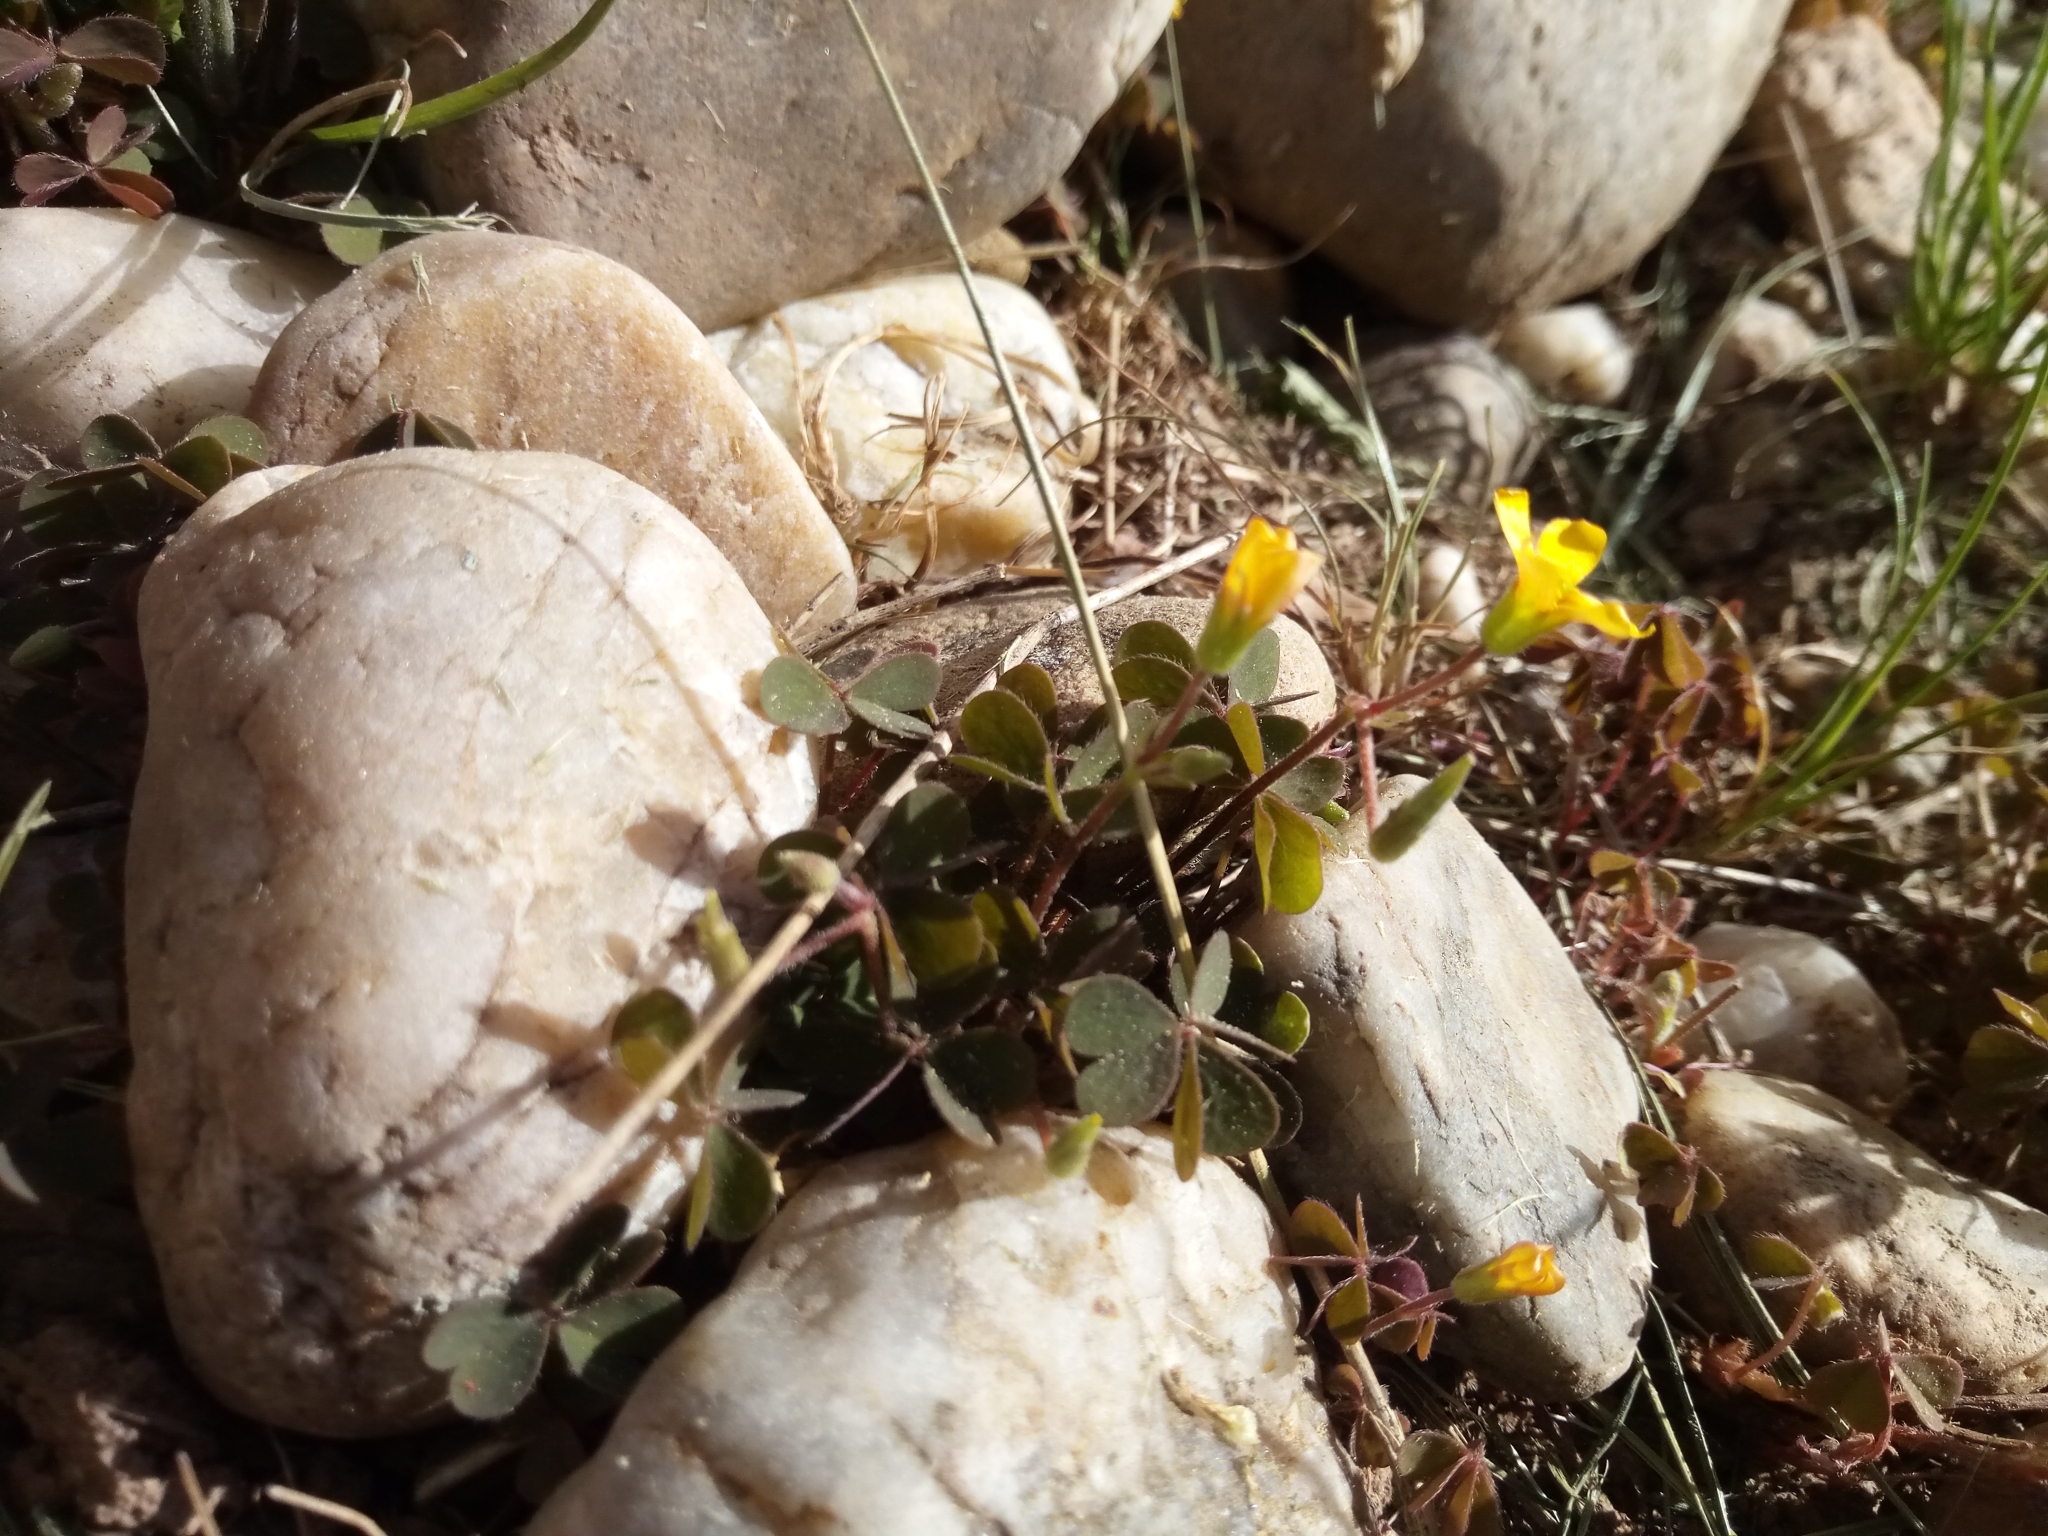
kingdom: Plantae
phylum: Tracheophyta
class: Magnoliopsida
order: Oxalidales
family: Oxalidaceae
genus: Oxalis
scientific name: Oxalis corniculata
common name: Procumbent yellow-sorrel
